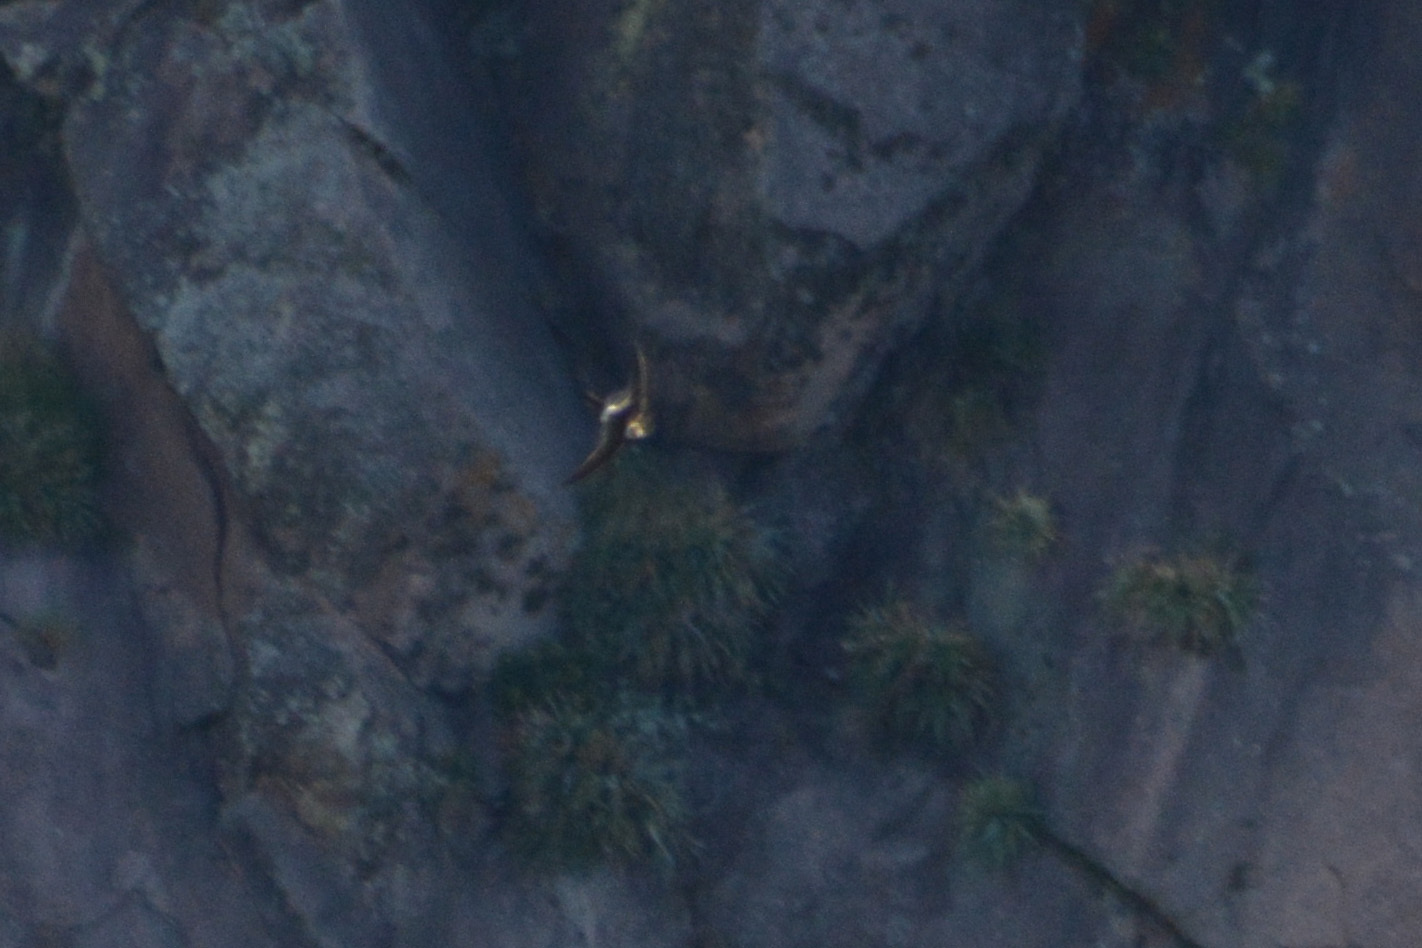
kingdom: Animalia
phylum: Chordata
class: Aves
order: Apodiformes
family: Apodidae
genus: Aeronautes
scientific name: Aeronautes andecolus
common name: Andean swift
